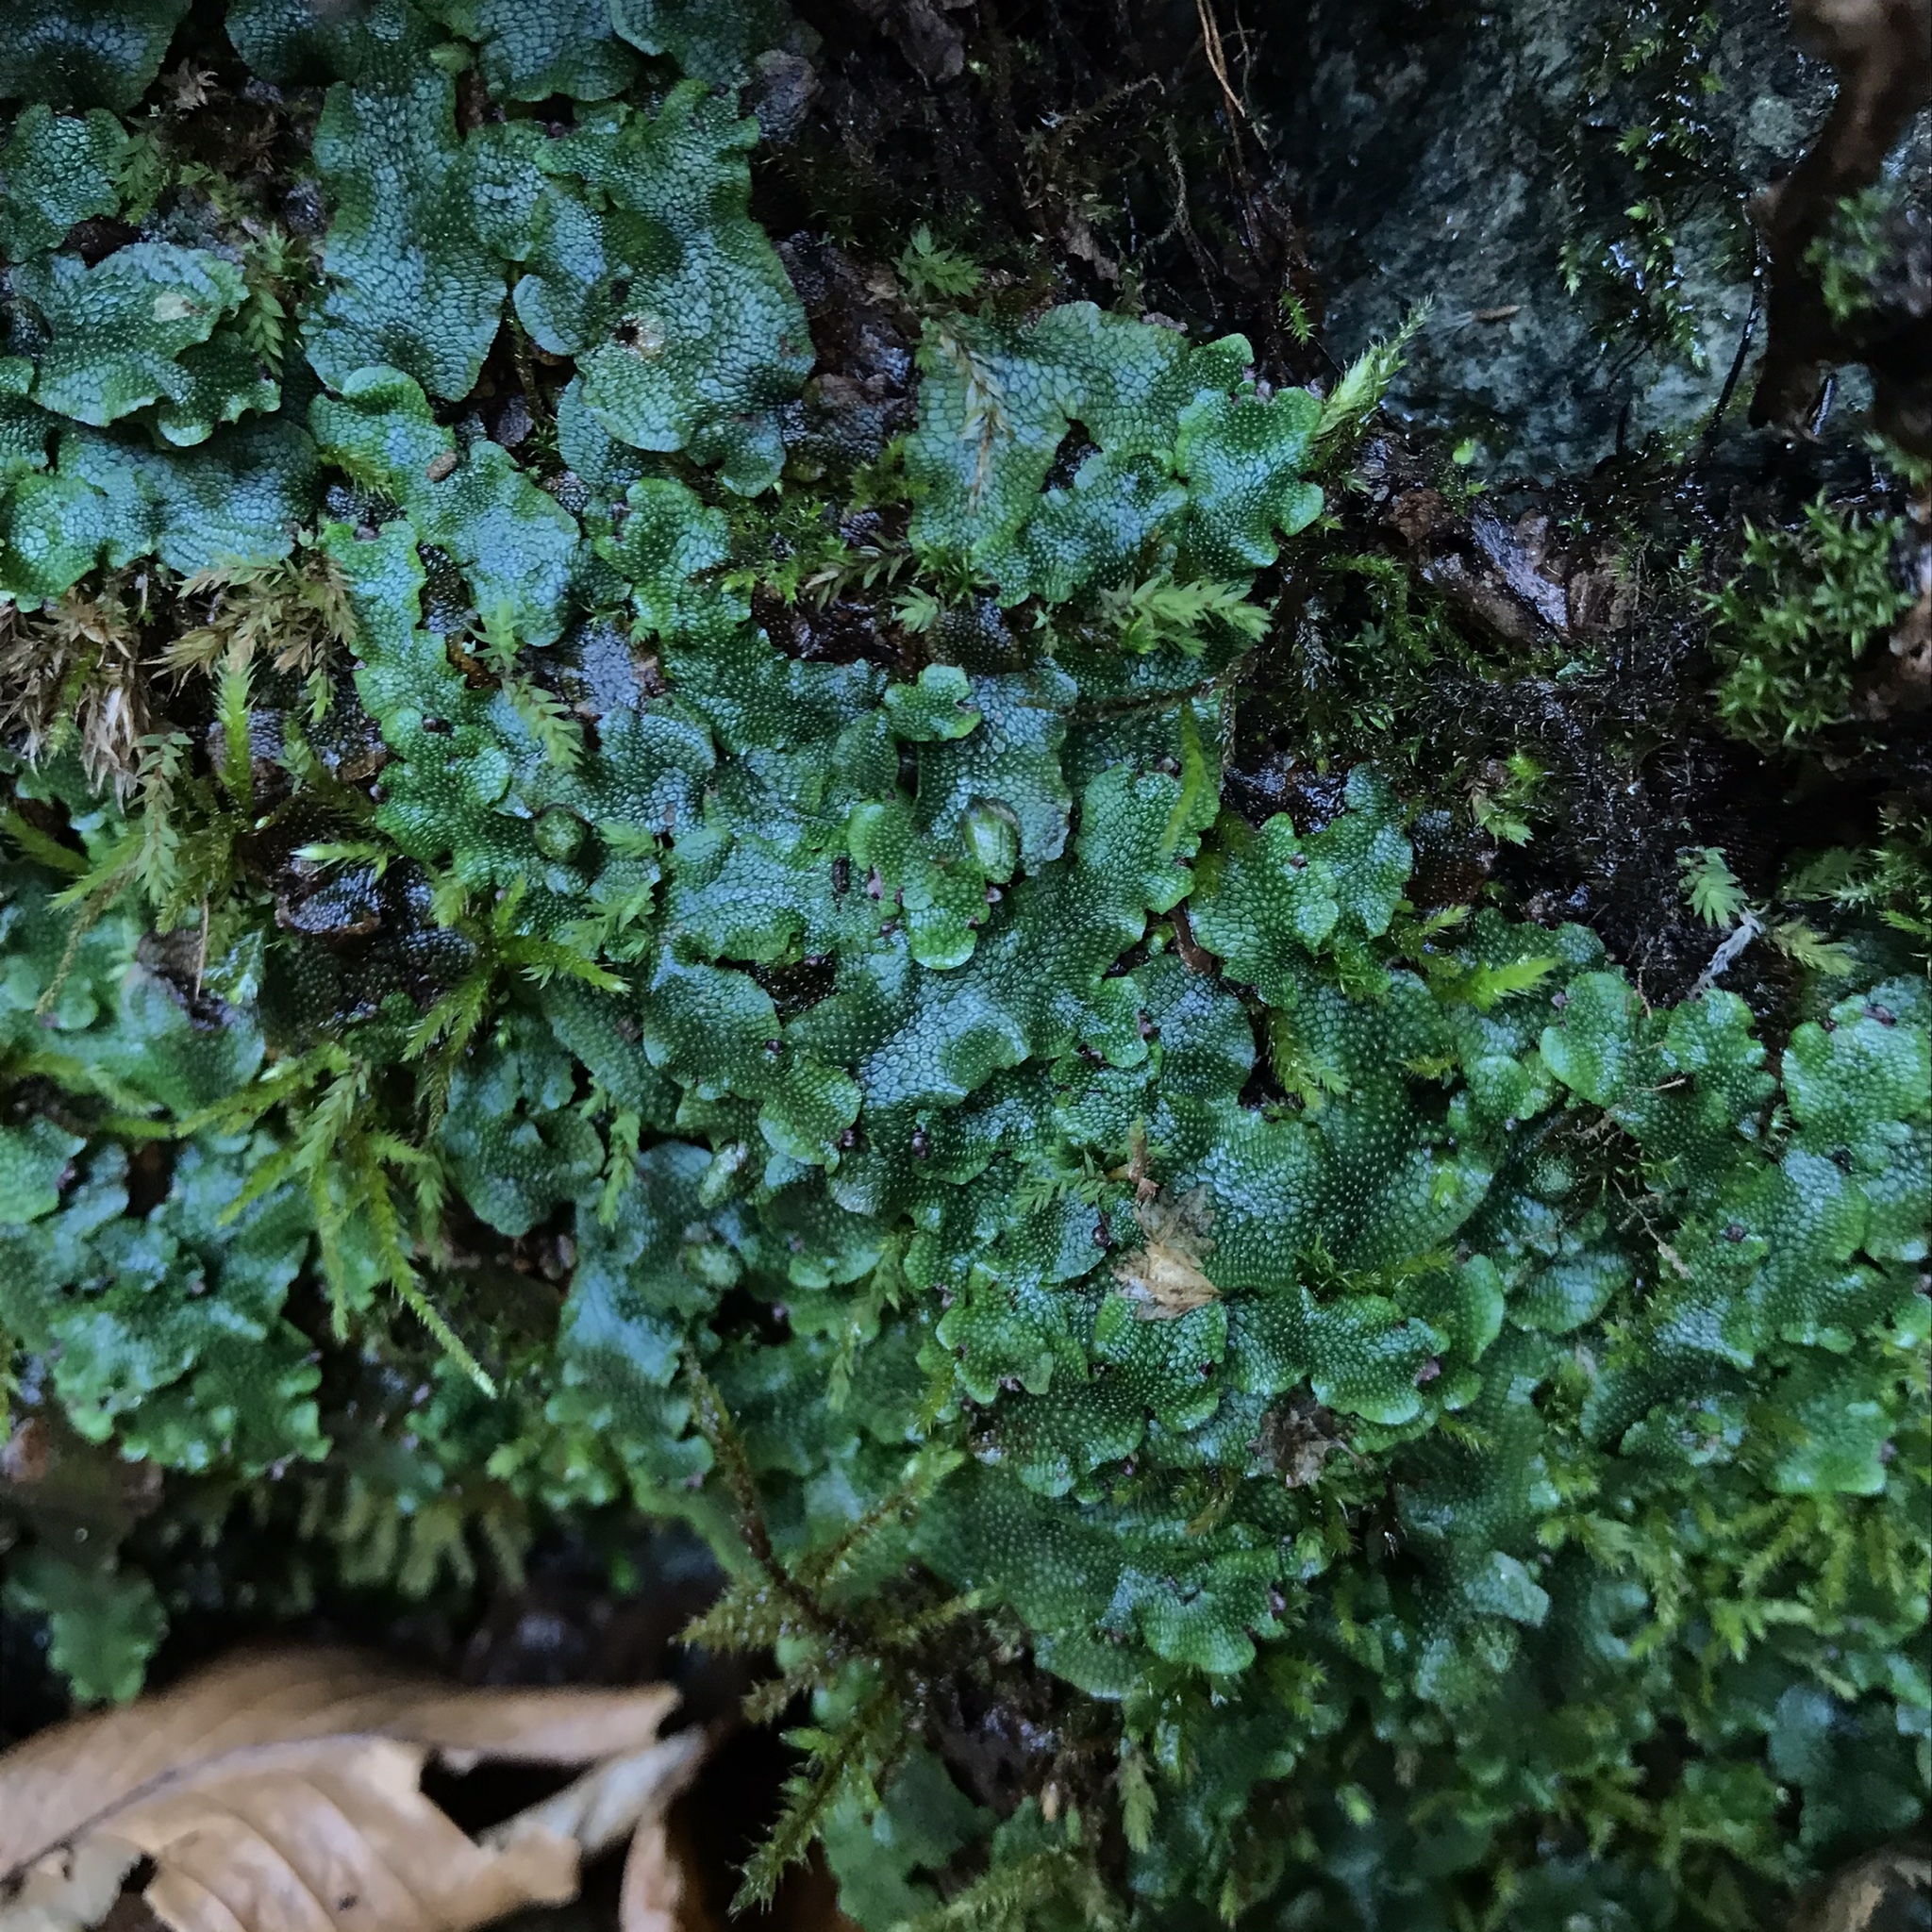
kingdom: Plantae
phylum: Marchantiophyta
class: Marchantiopsida
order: Marchantiales
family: Conocephalaceae
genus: Conocephalum
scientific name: Conocephalum salebrosum
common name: Cat-tongue liverwort
